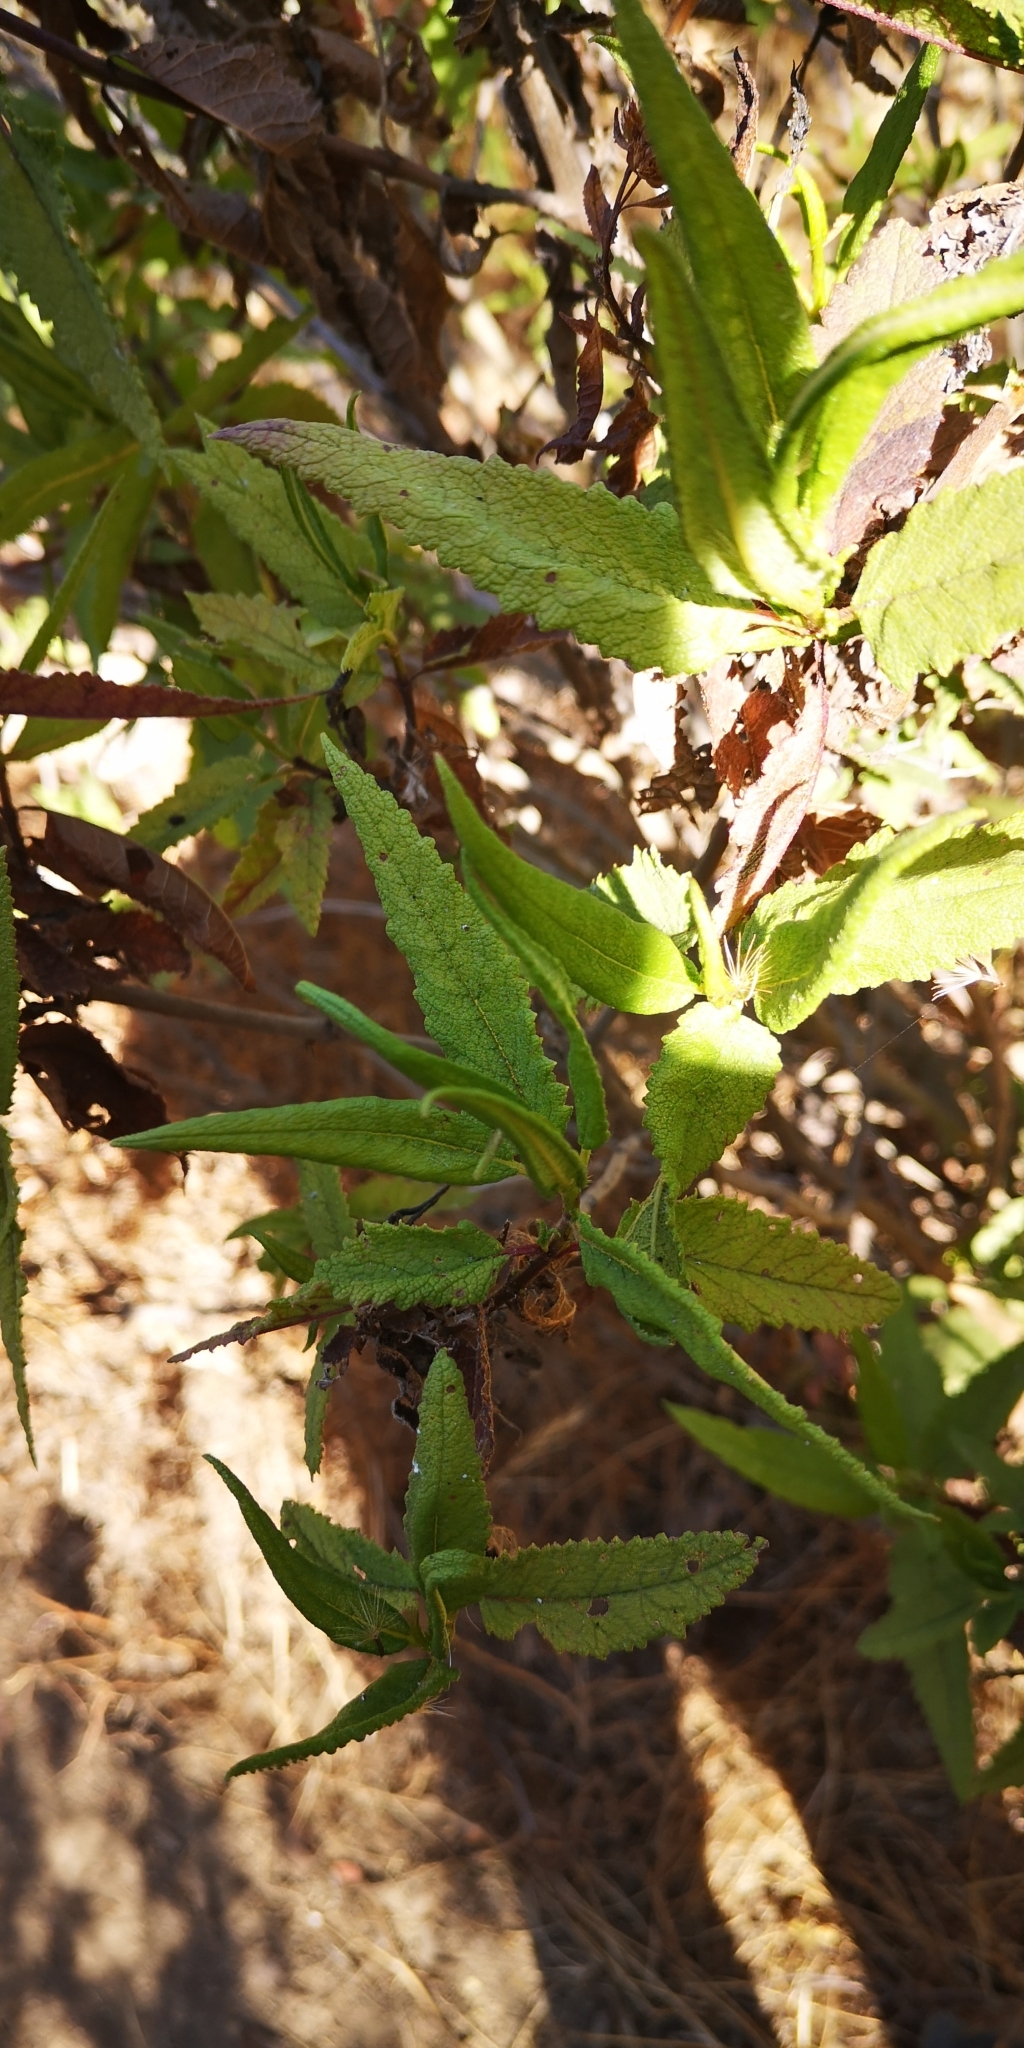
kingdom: Plantae
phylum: Tracheophyta
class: Magnoliopsida
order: Asterales
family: Asteraceae
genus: Aristeguietia
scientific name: Aristeguietia salvia
